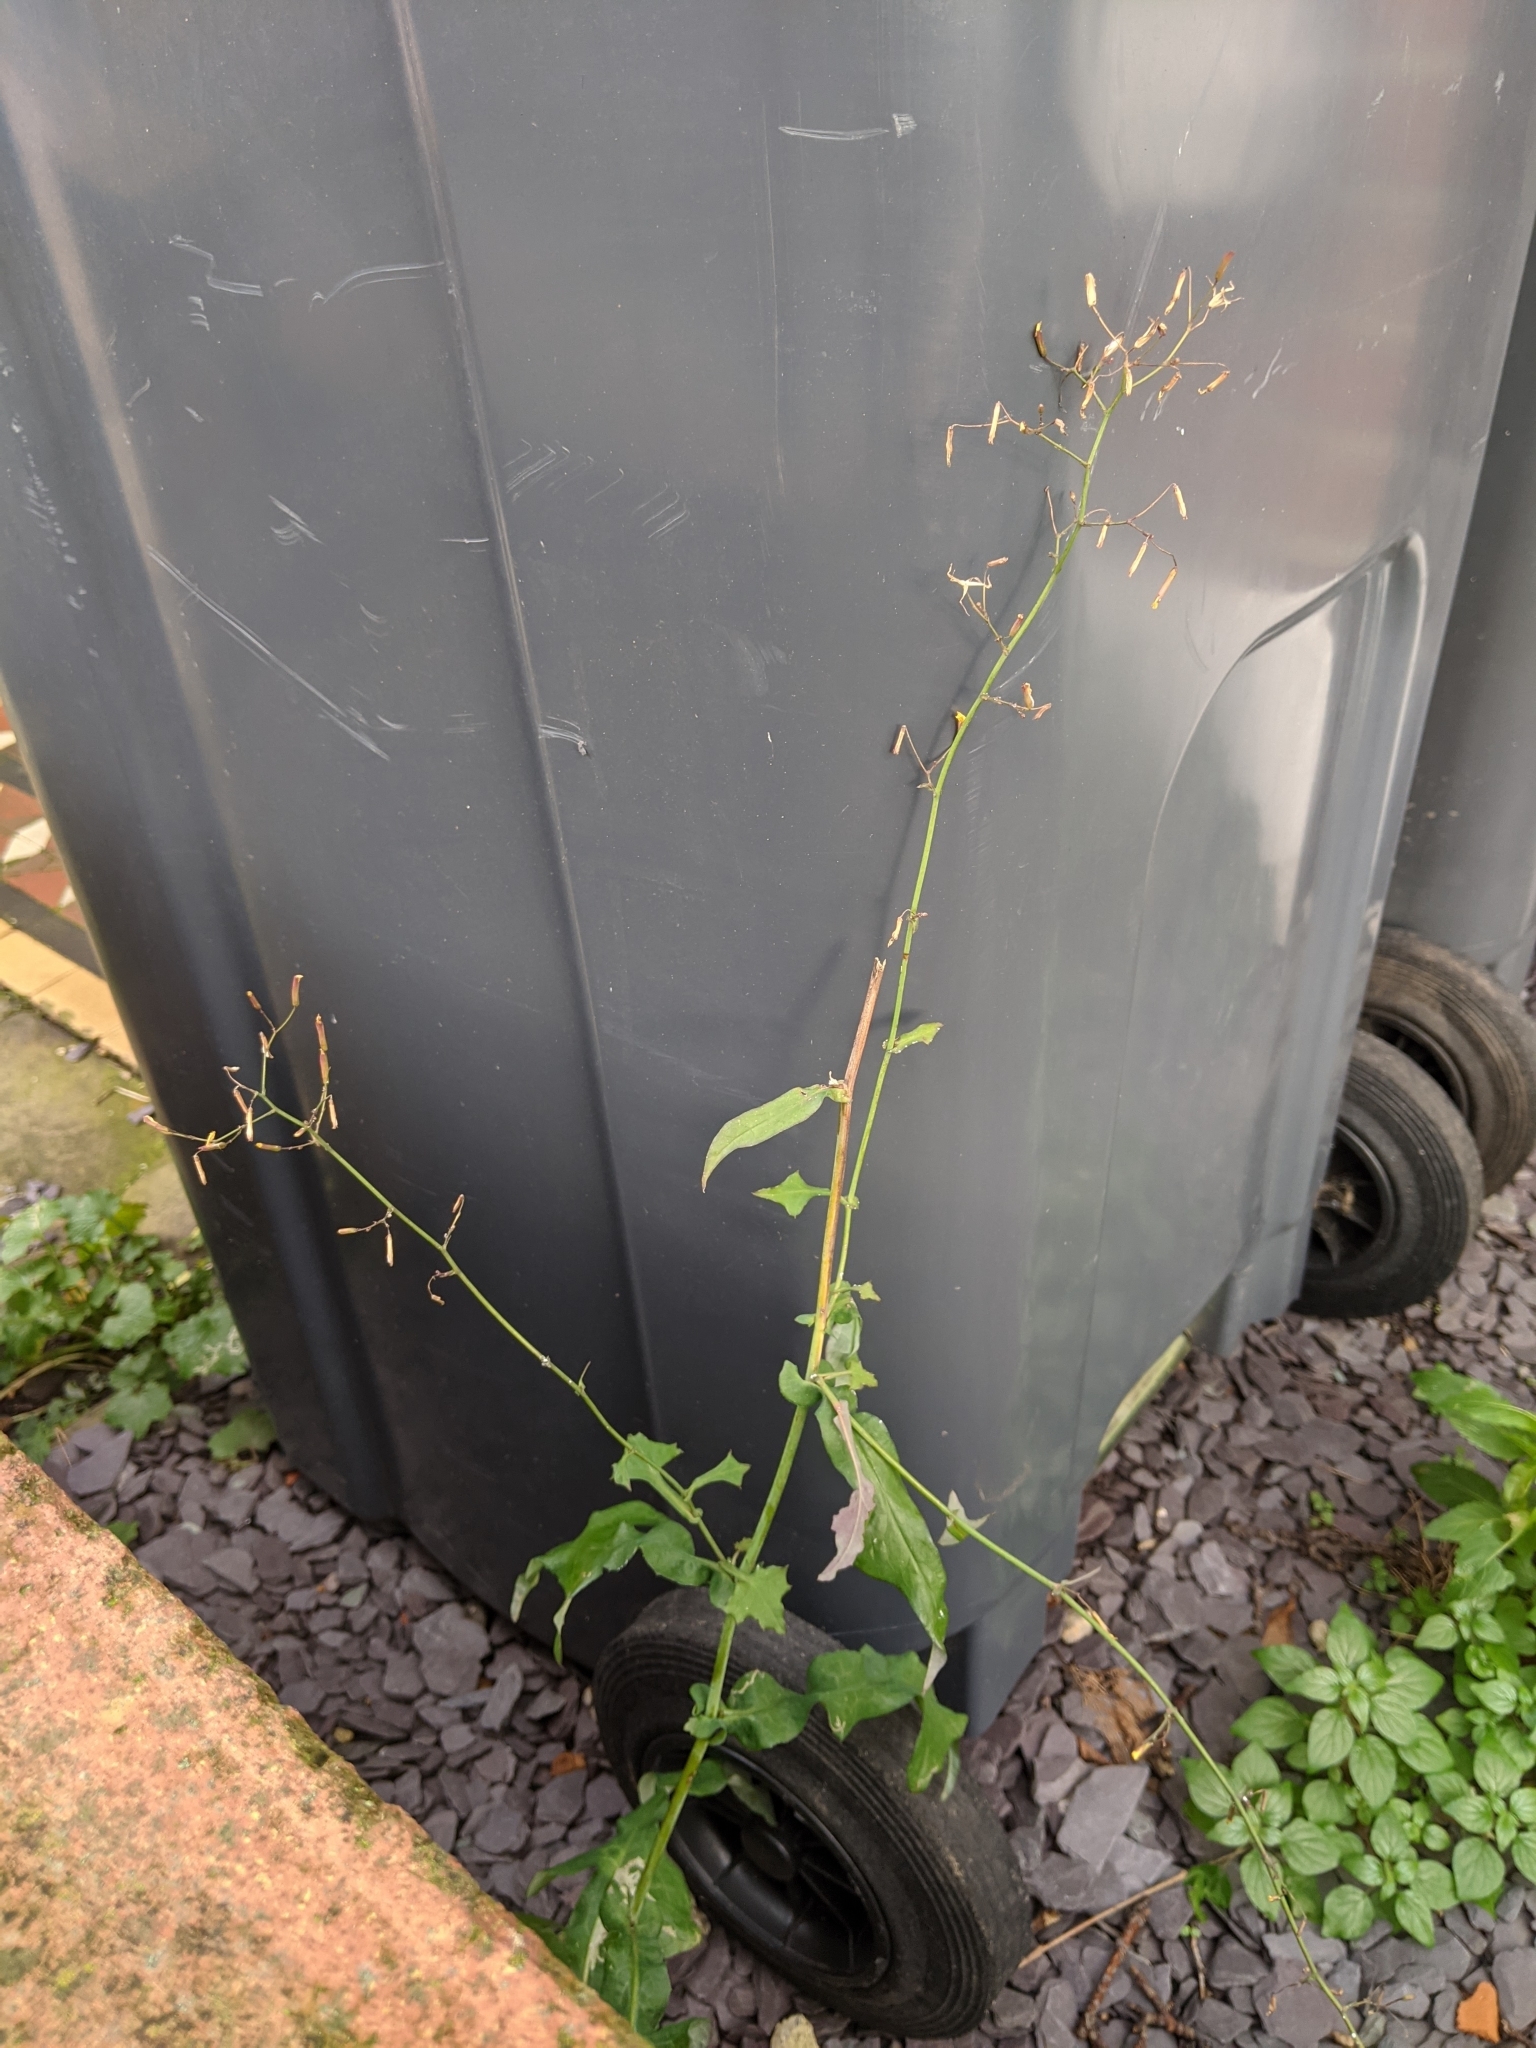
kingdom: Plantae
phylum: Tracheophyta
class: Magnoliopsida
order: Asterales
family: Asteraceae
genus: Mycelis
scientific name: Mycelis muralis
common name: Wall lettuce
